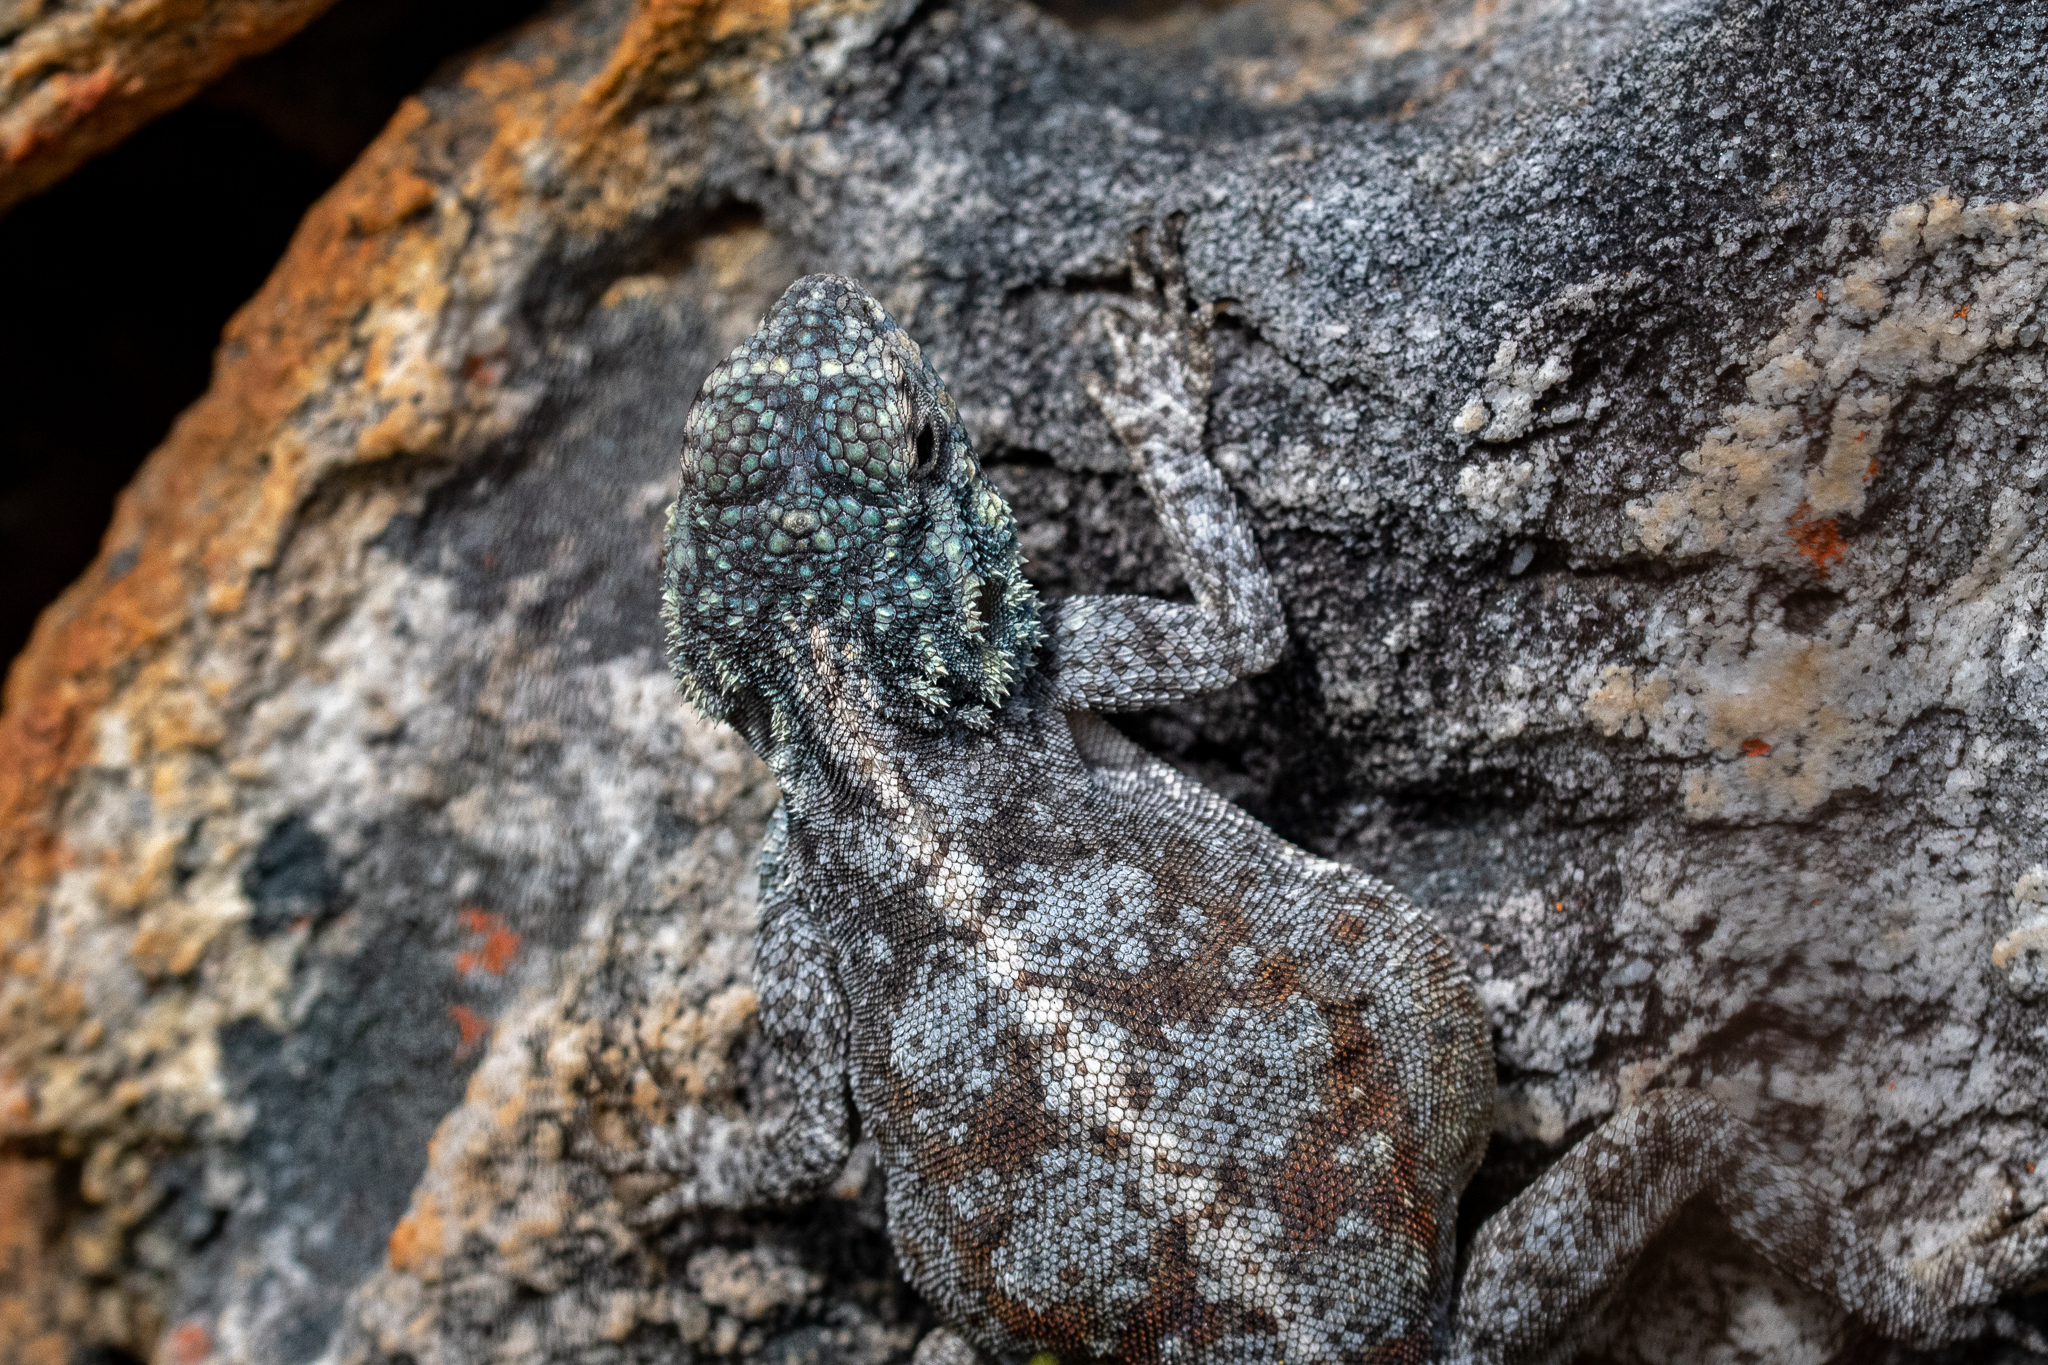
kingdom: Animalia
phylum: Chordata
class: Squamata
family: Agamidae
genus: Agama
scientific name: Agama atra
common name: Southern african rock agama
